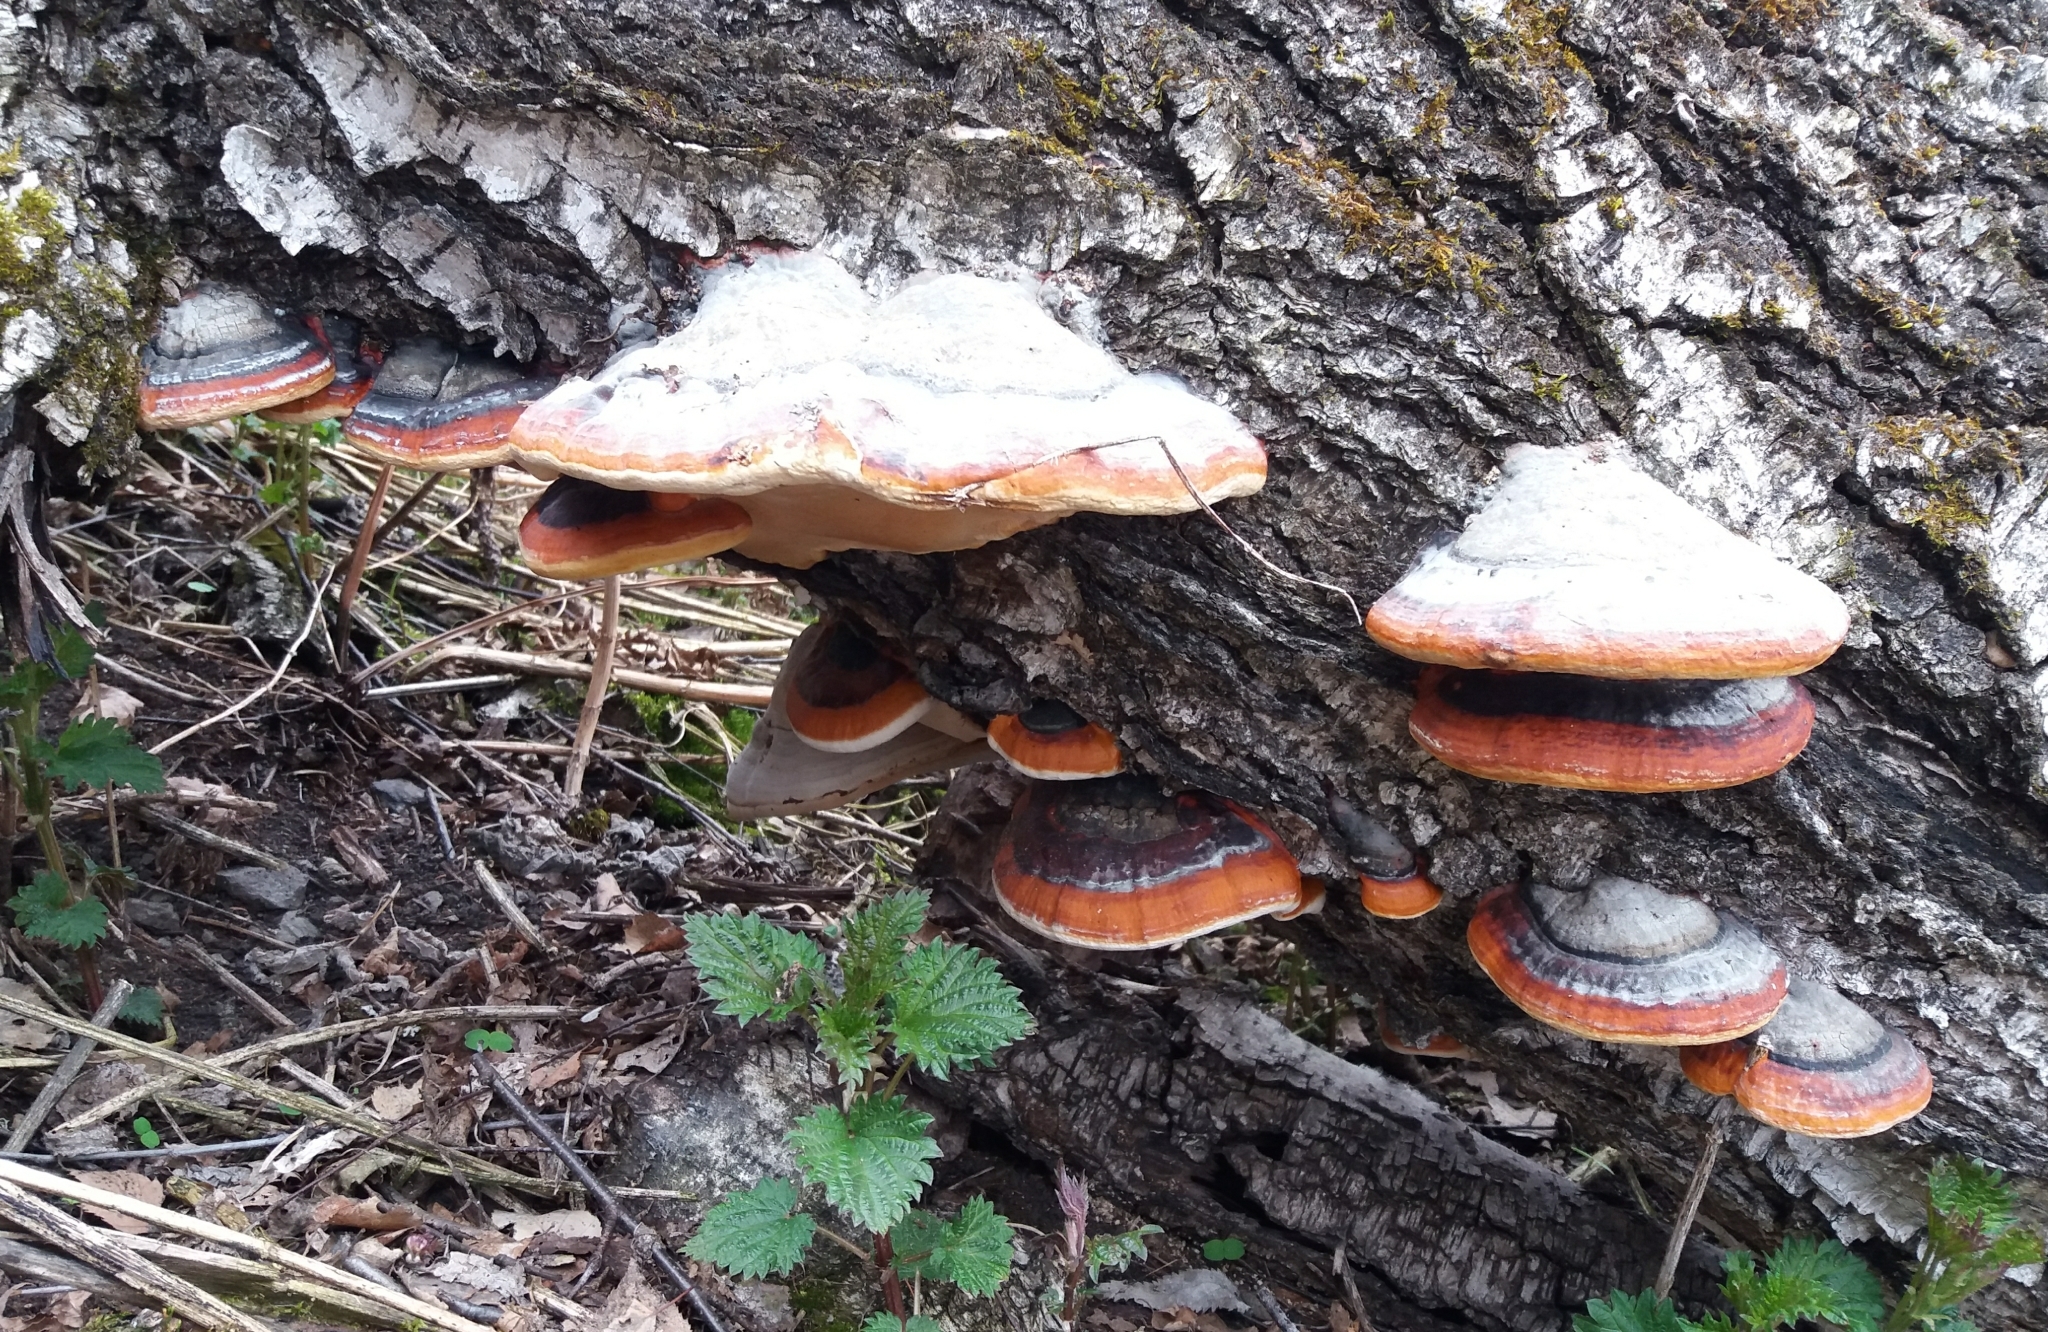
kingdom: Fungi
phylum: Basidiomycota
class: Agaricomycetes
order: Polyporales
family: Fomitopsidaceae
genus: Fomitopsis
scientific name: Fomitopsis pinicola
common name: Red-belted bracket
